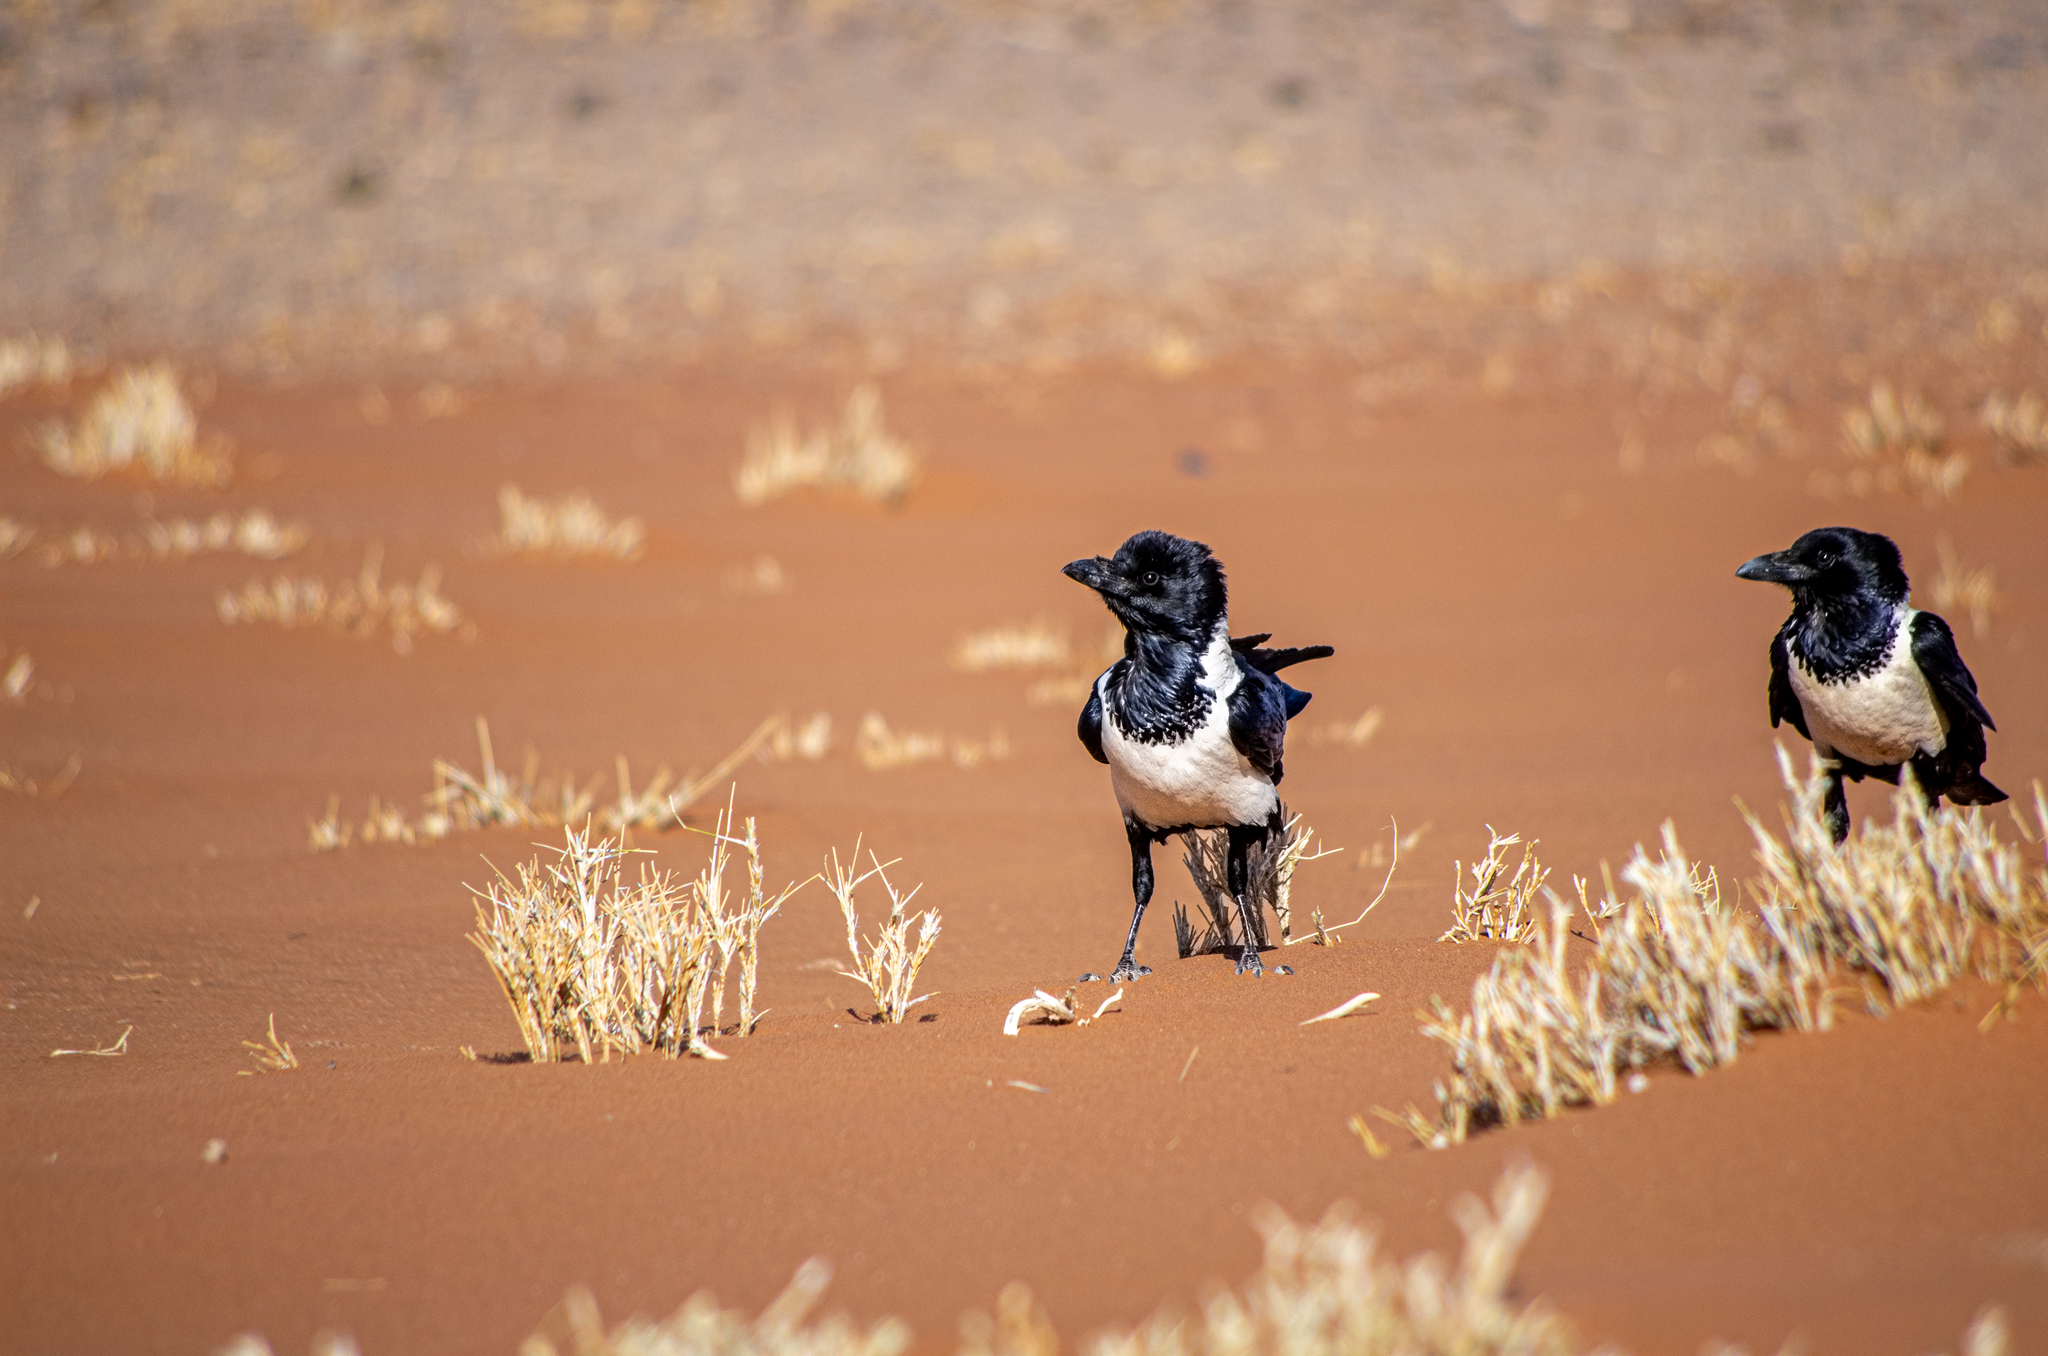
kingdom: Animalia
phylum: Chordata
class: Aves
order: Passeriformes
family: Corvidae
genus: Corvus
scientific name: Corvus albus
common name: Pied crow
